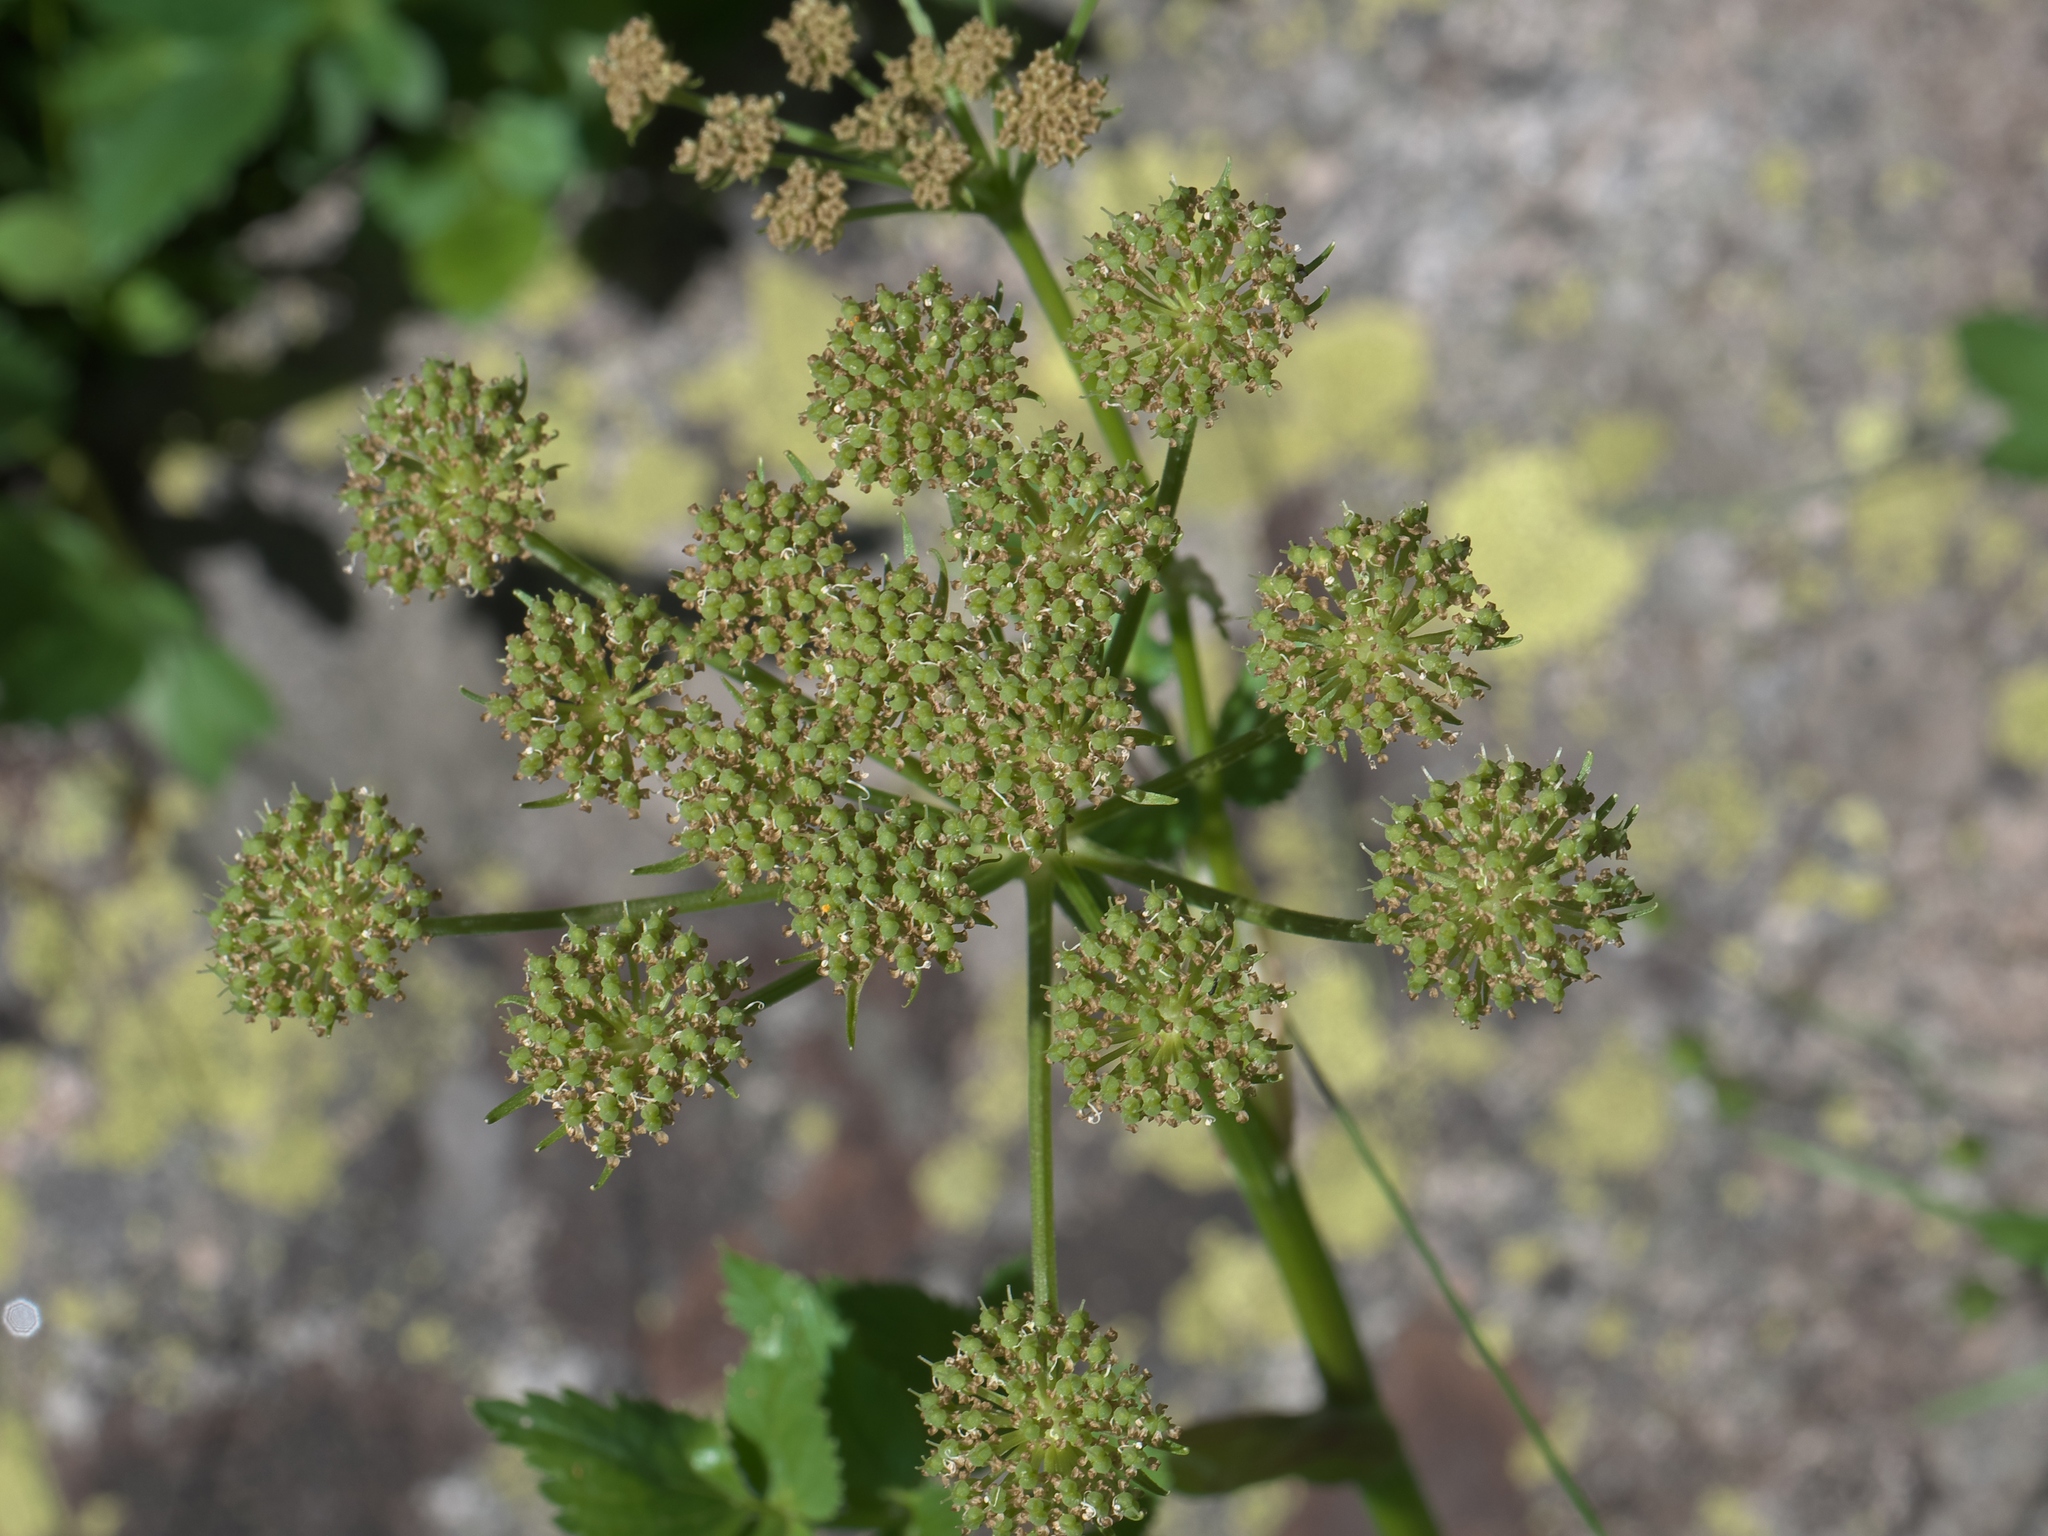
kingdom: Plantae
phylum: Tracheophyta
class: Magnoliopsida
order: Apiales
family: Apiaceae
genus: Levisticum
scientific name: Levisticum officinale
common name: Lovage
